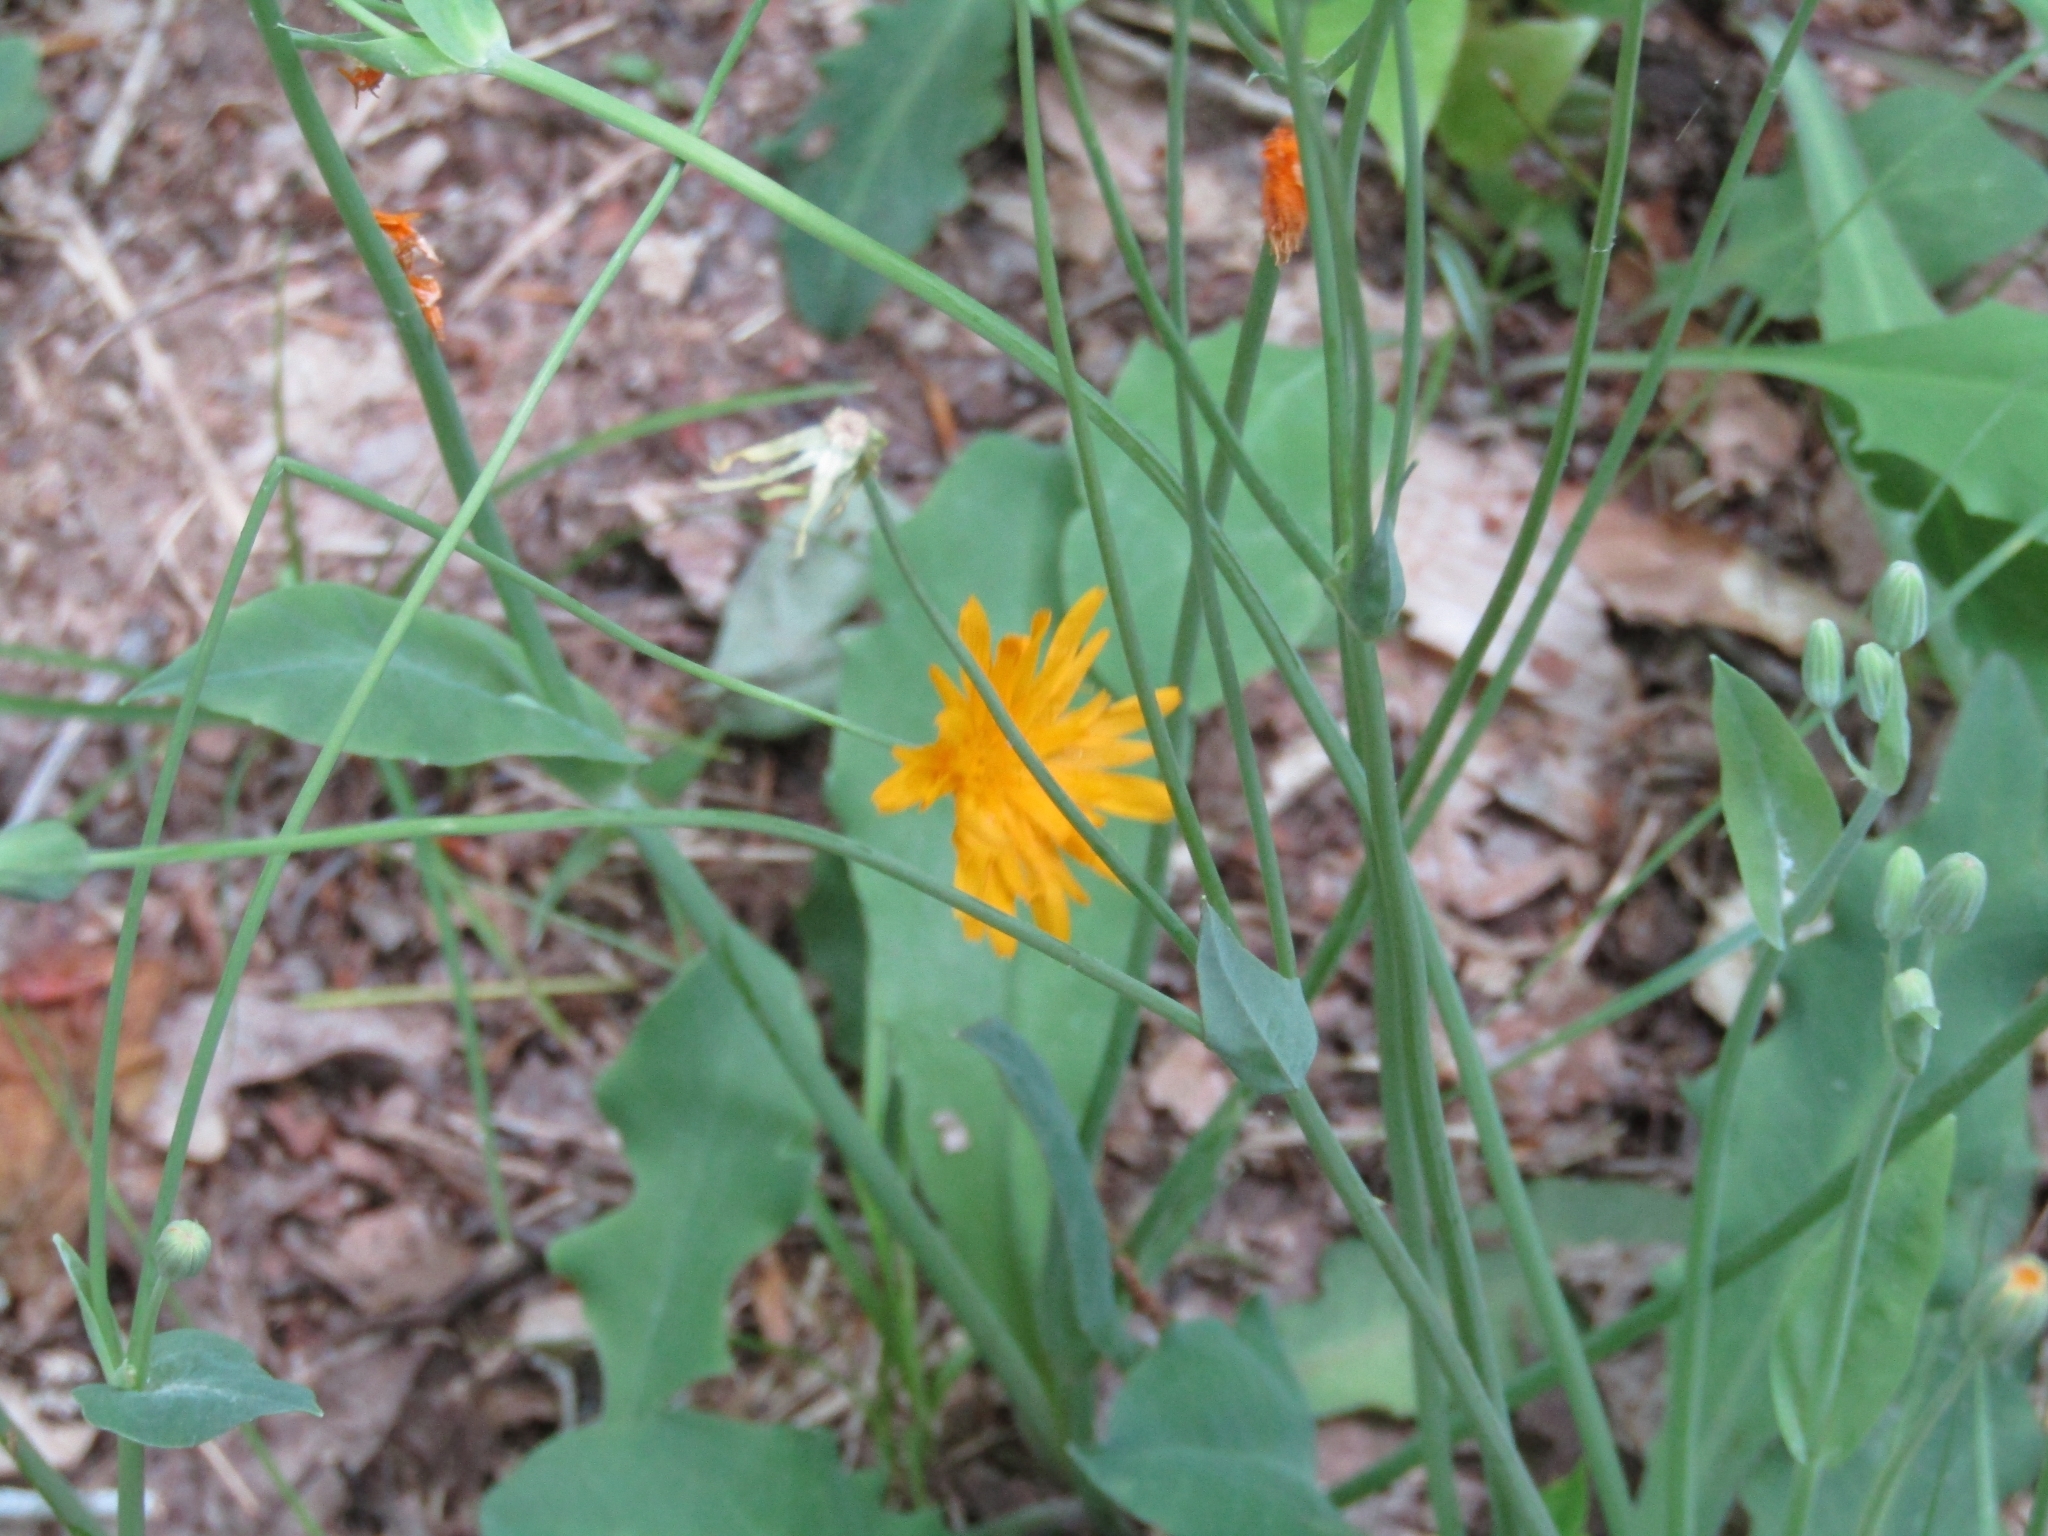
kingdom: Plantae
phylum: Tracheophyta
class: Magnoliopsida
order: Asterales
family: Asteraceae
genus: Krigia
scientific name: Krigia biflora
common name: Orange dwarf-dandelion
